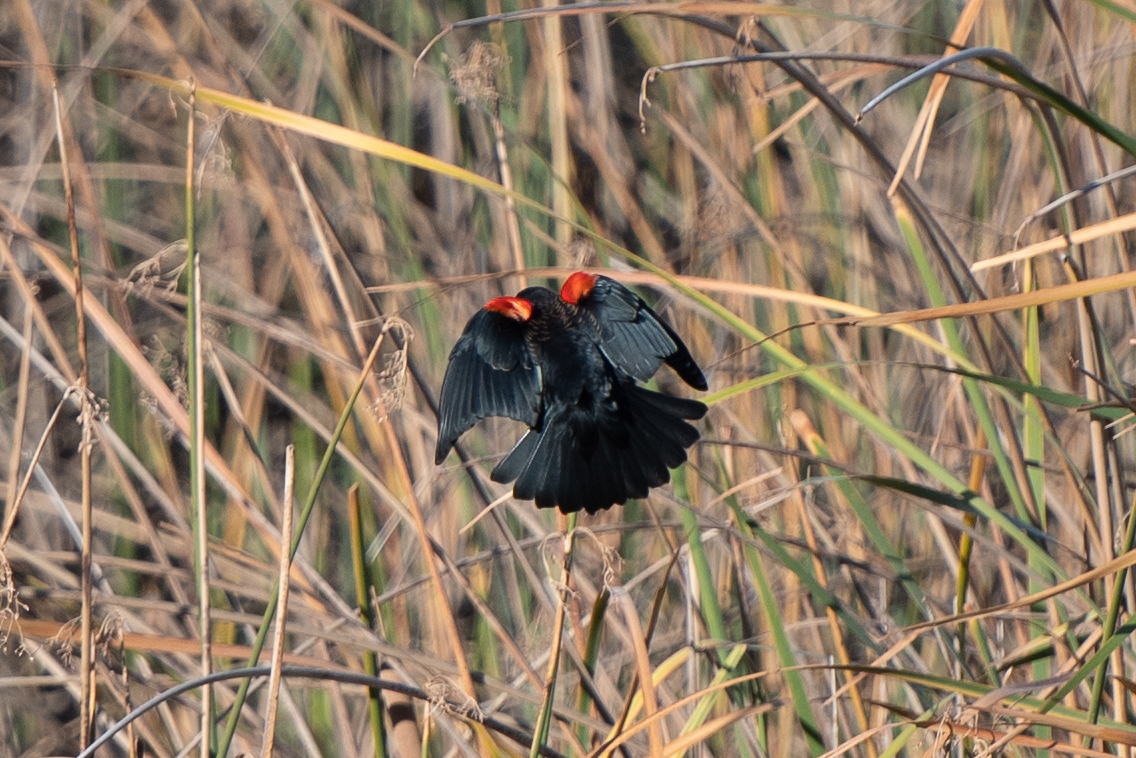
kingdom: Animalia
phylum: Chordata
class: Aves
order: Passeriformes
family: Icteridae
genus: Agelaius
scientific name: Agelaius phoeniceus
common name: Red-winged blackbird
